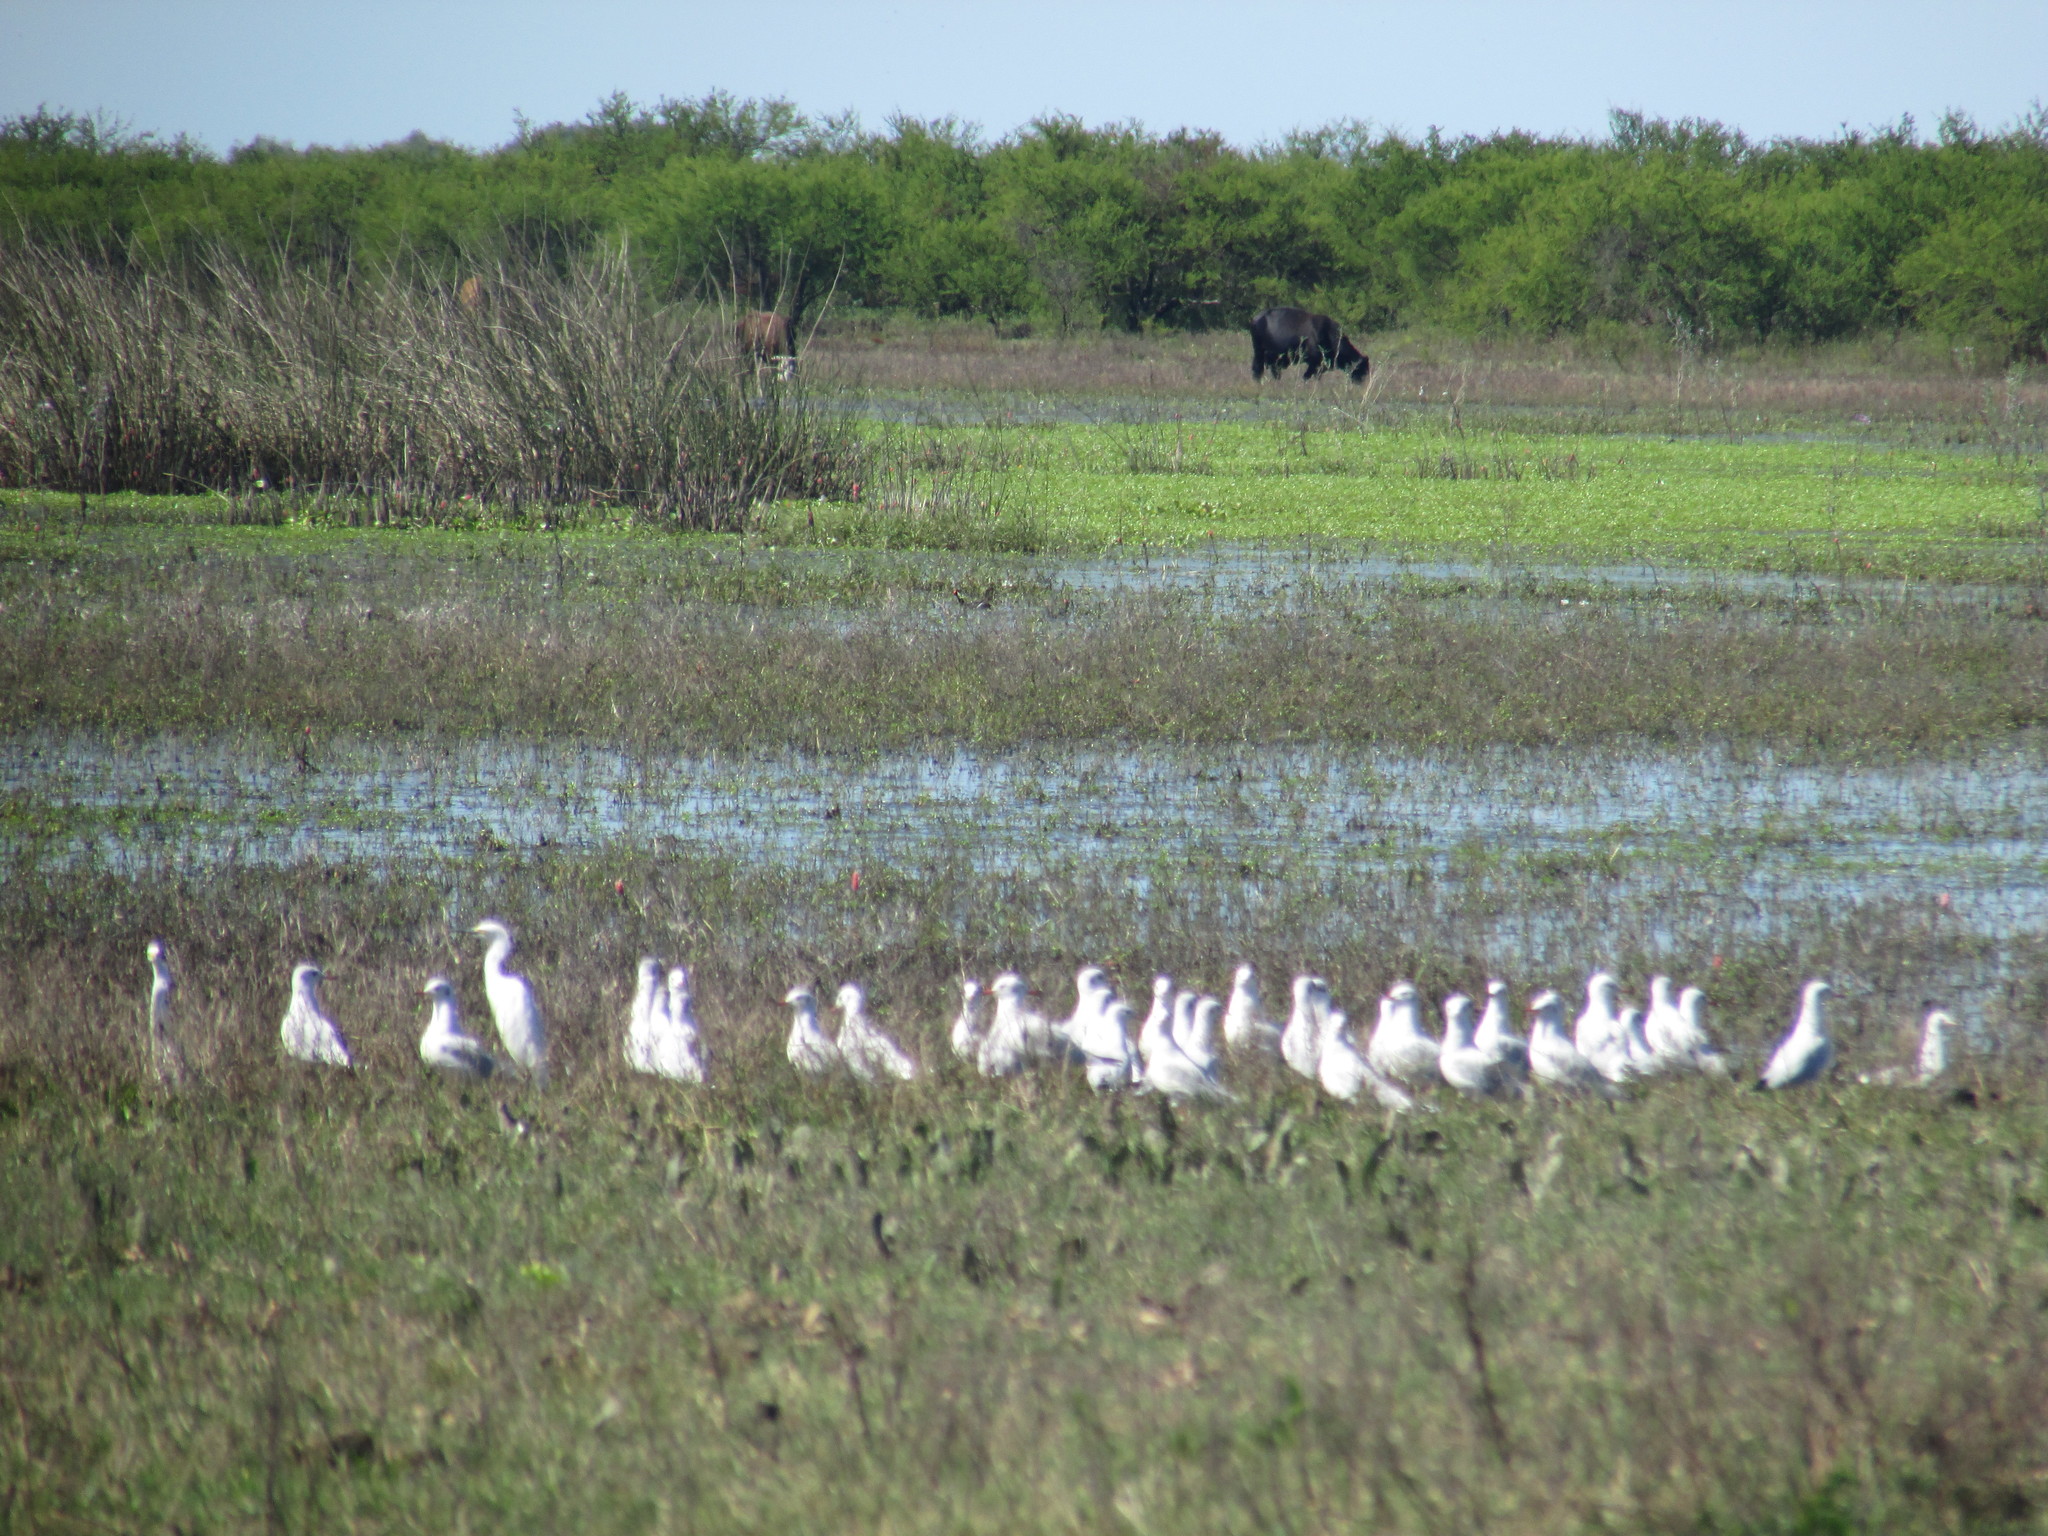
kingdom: Animalia
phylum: Chordata
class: Aves
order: Charadriiformes
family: Laridae
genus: Chroicocephalus
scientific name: Chroicocephalus maculipennis
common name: Brown-hooded gull
